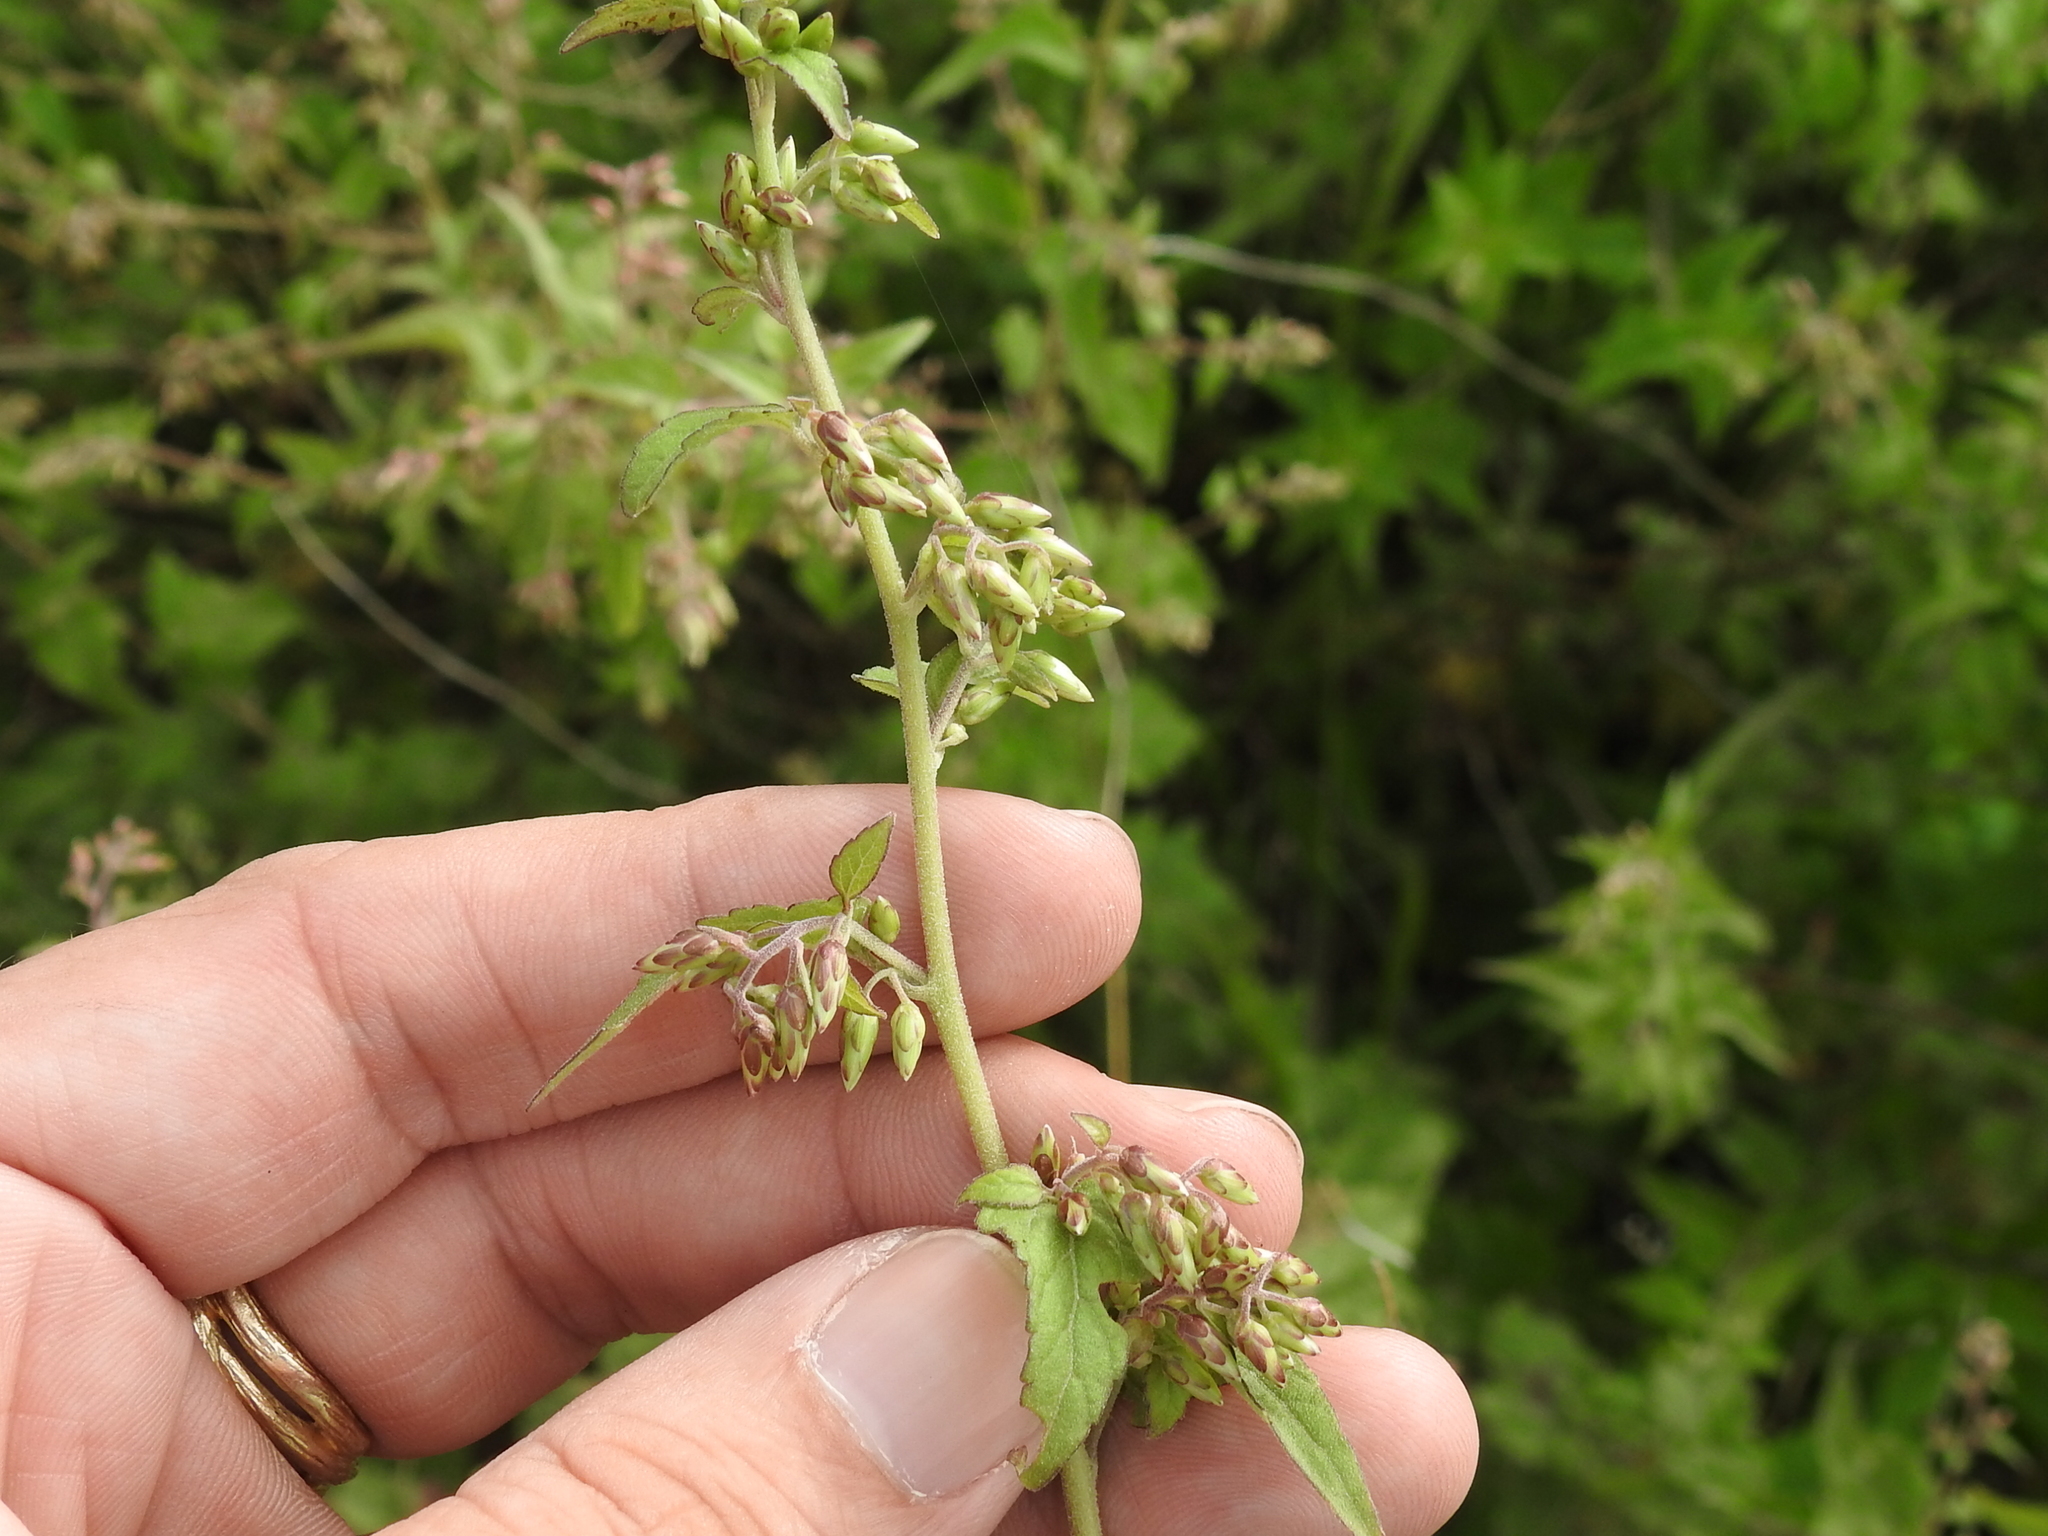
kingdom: Plantae
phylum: Tracheophyta
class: Magnoliopsida
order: Asterales
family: Asteraceae
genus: Brickellia
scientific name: Brickellia rusbyi
